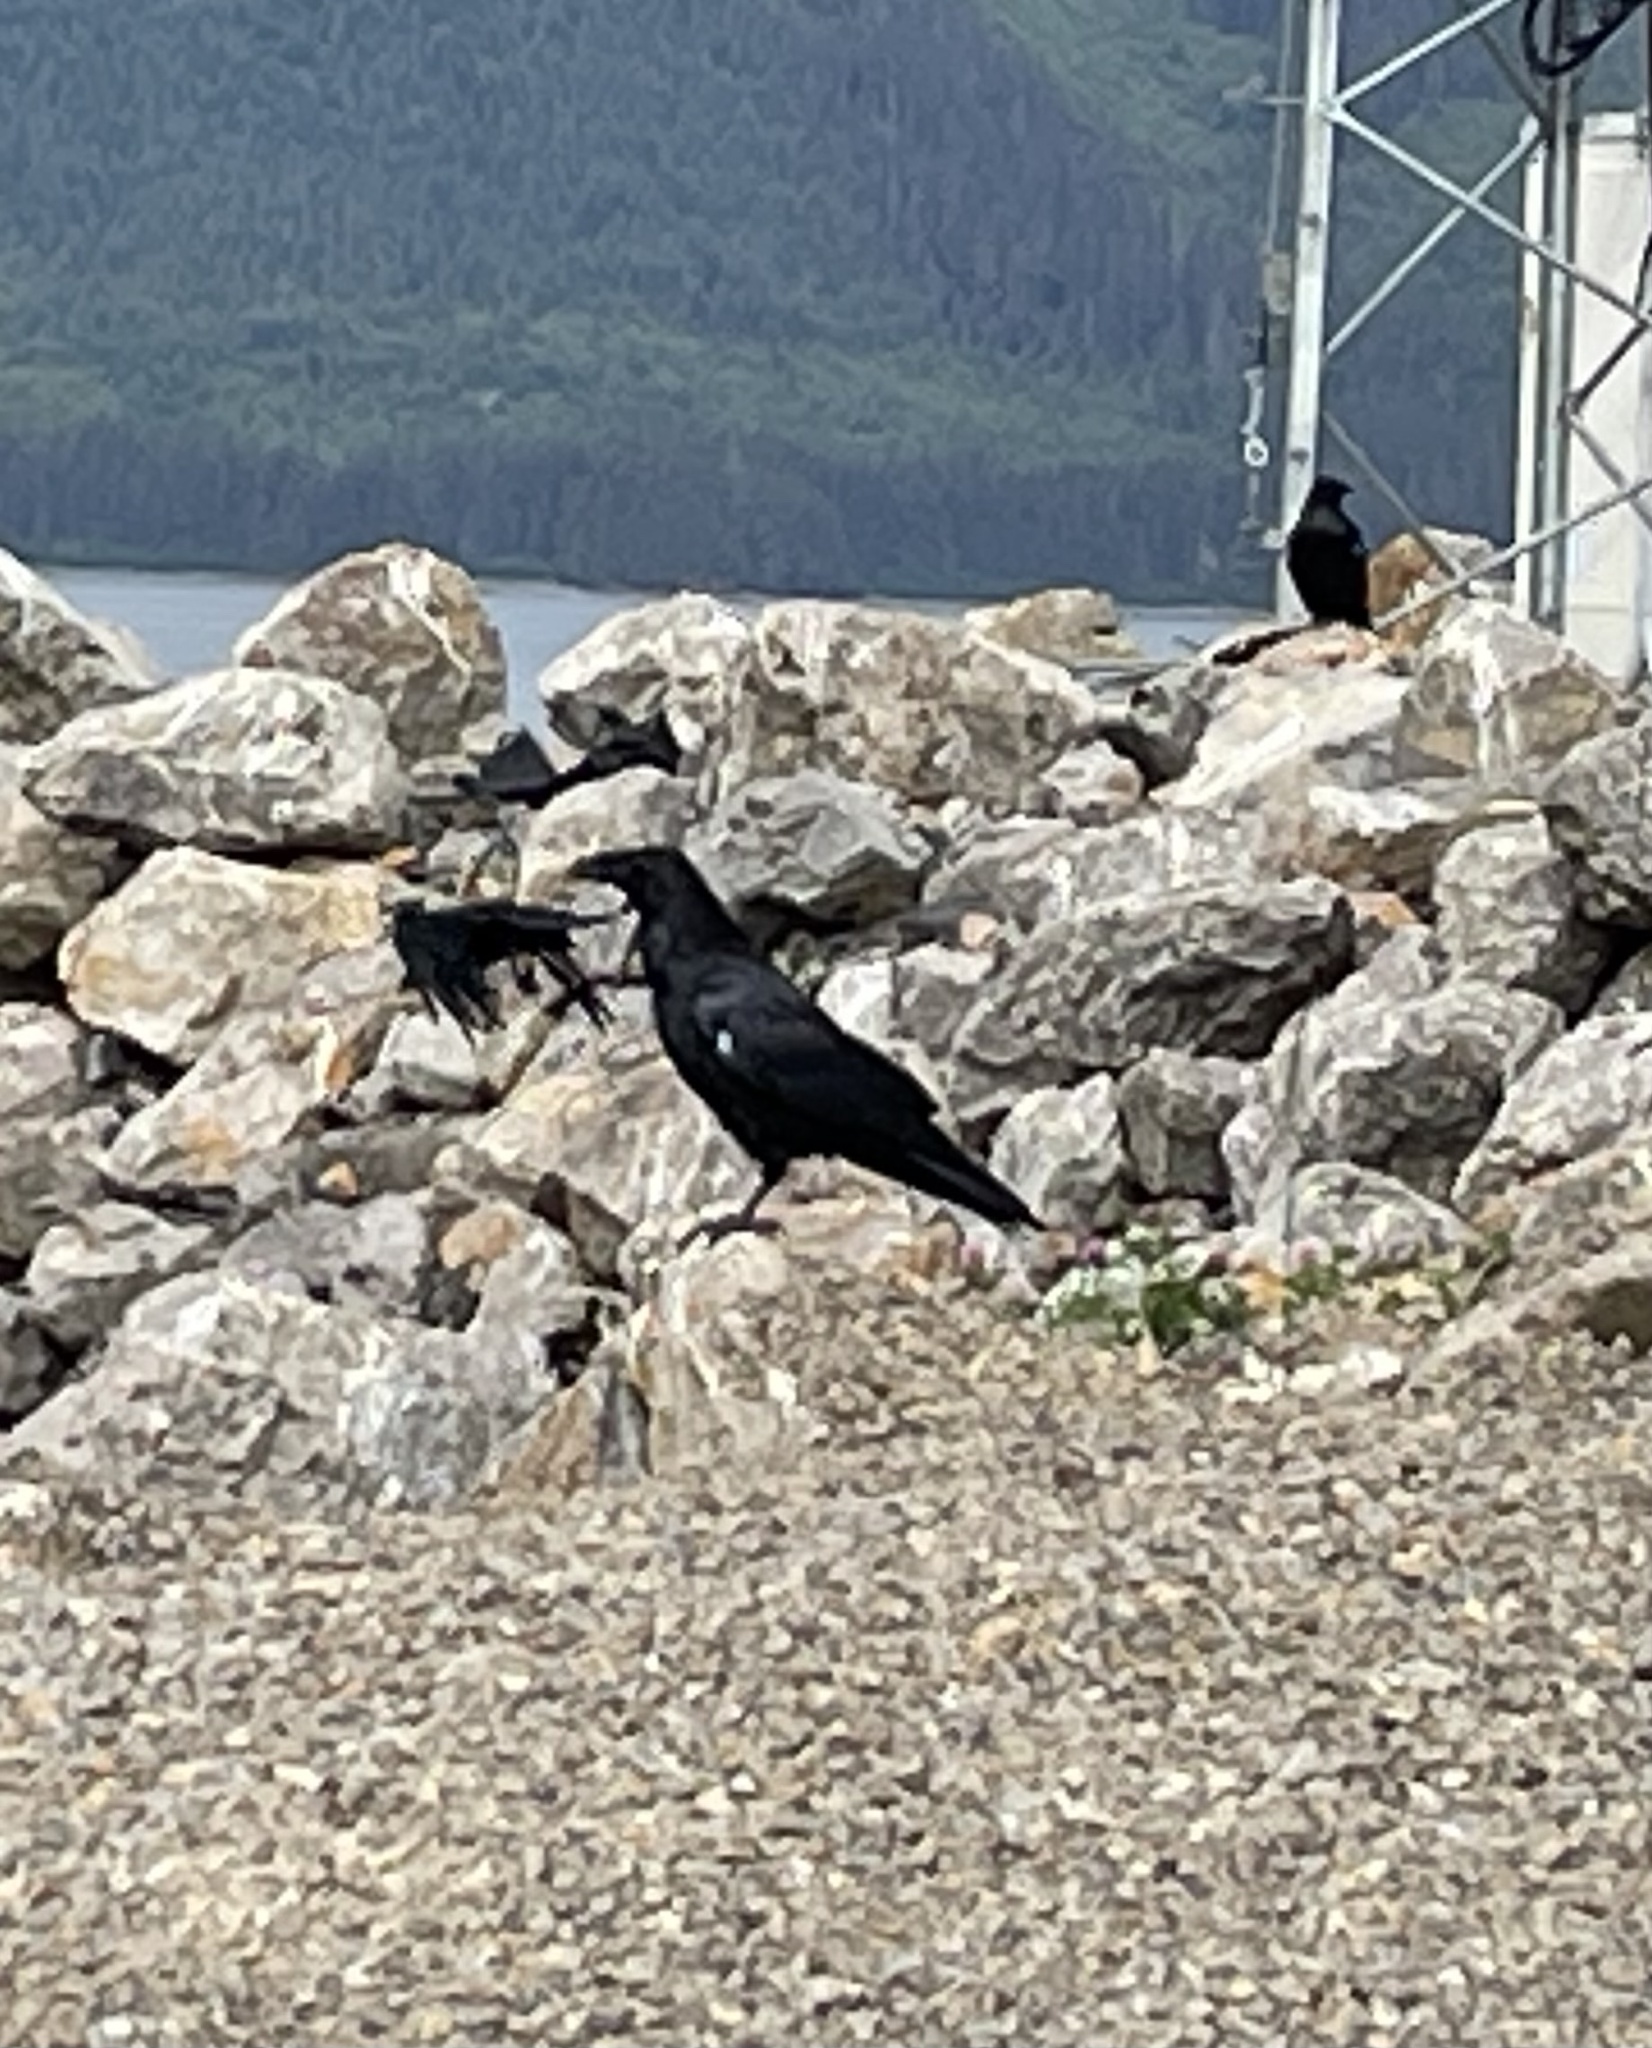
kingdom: Animalia
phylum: Chordata
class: Aves
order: Passeriformes
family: Corvidae
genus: Corvus
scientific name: Corvus corax
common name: Common raven
